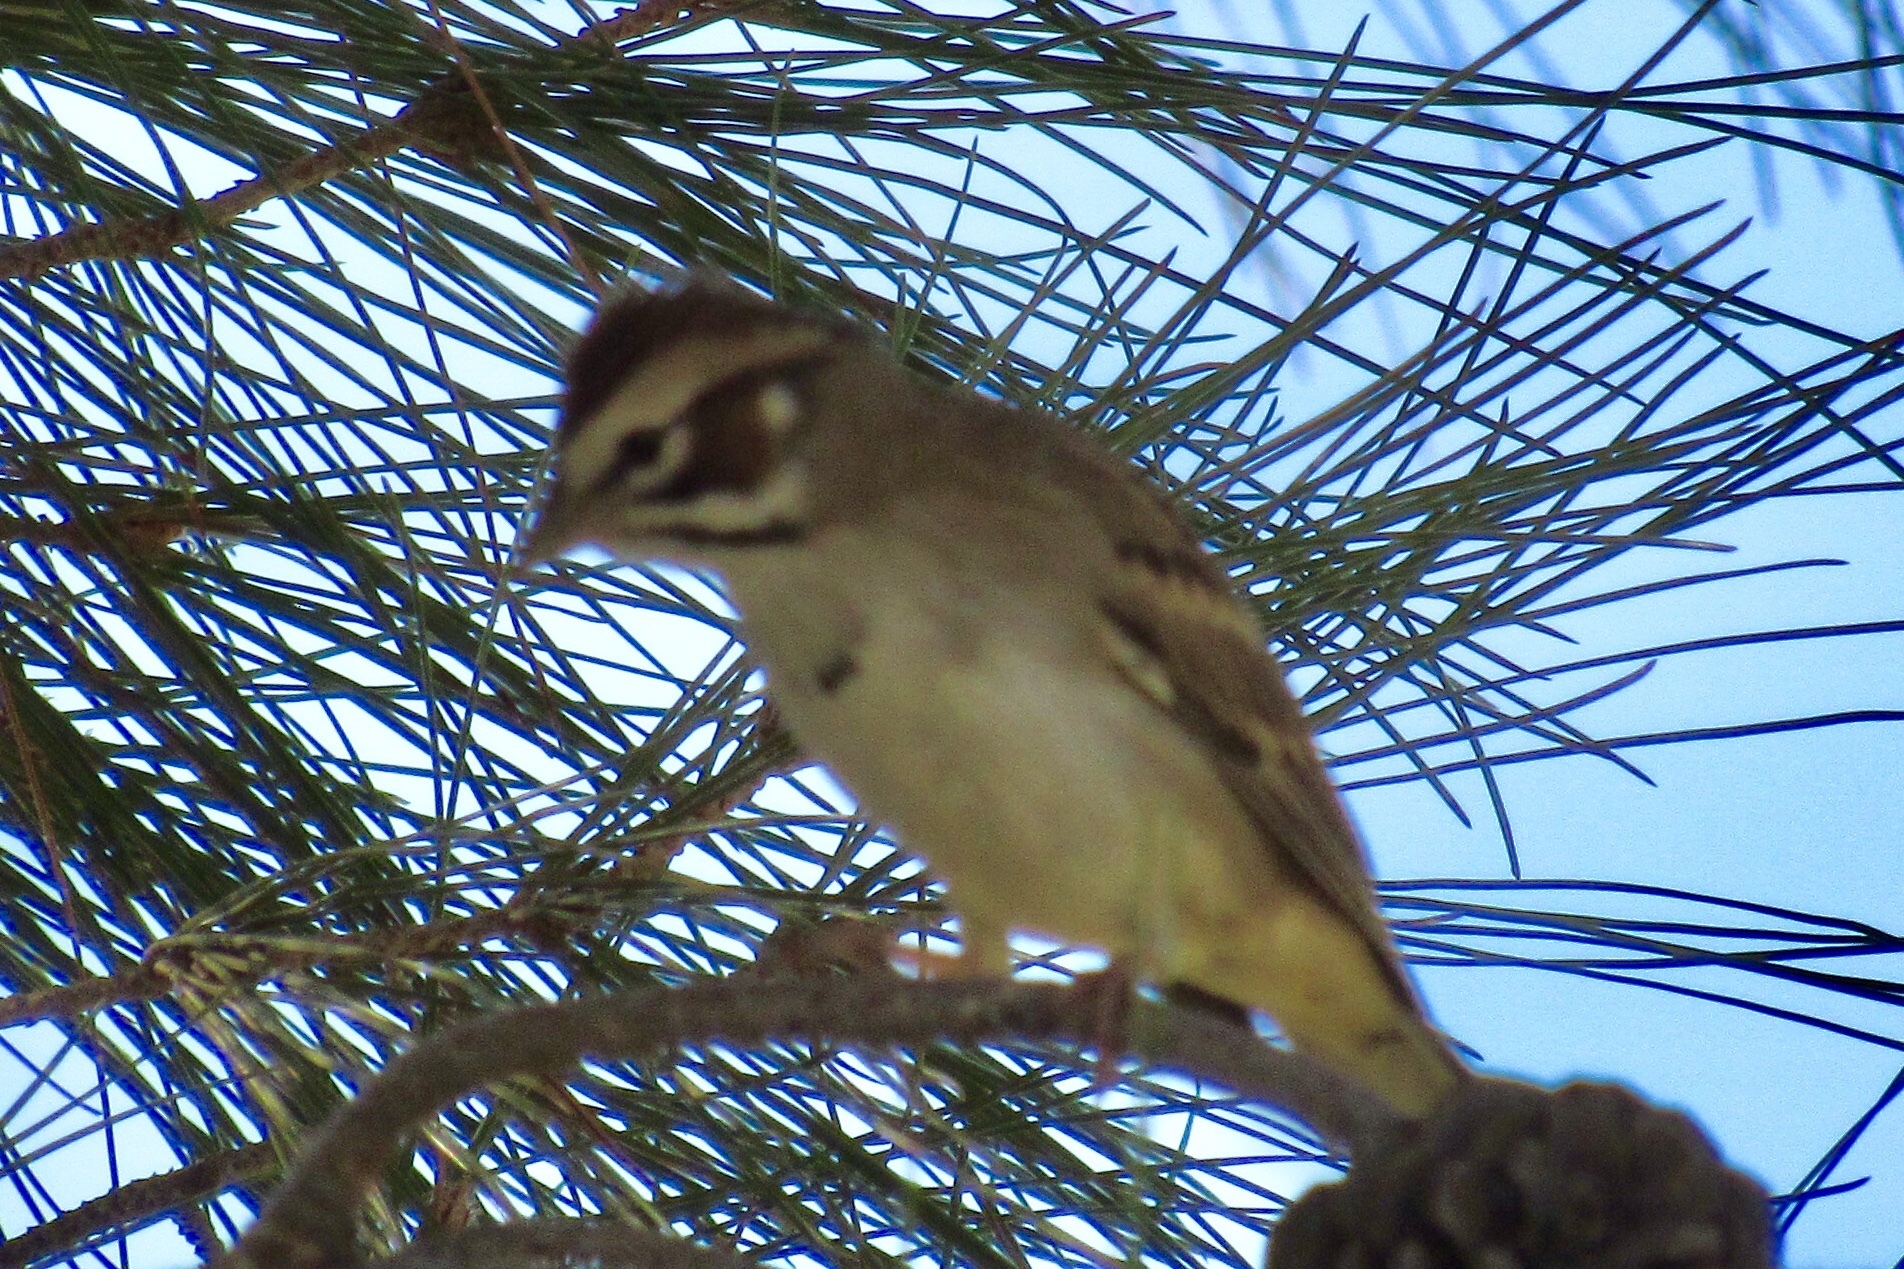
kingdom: Animalia
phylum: Chordata
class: Aves
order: Passeriformes
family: Passerellidae
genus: Chondestes
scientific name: Chondestes grammacus
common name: Lark sparrow
